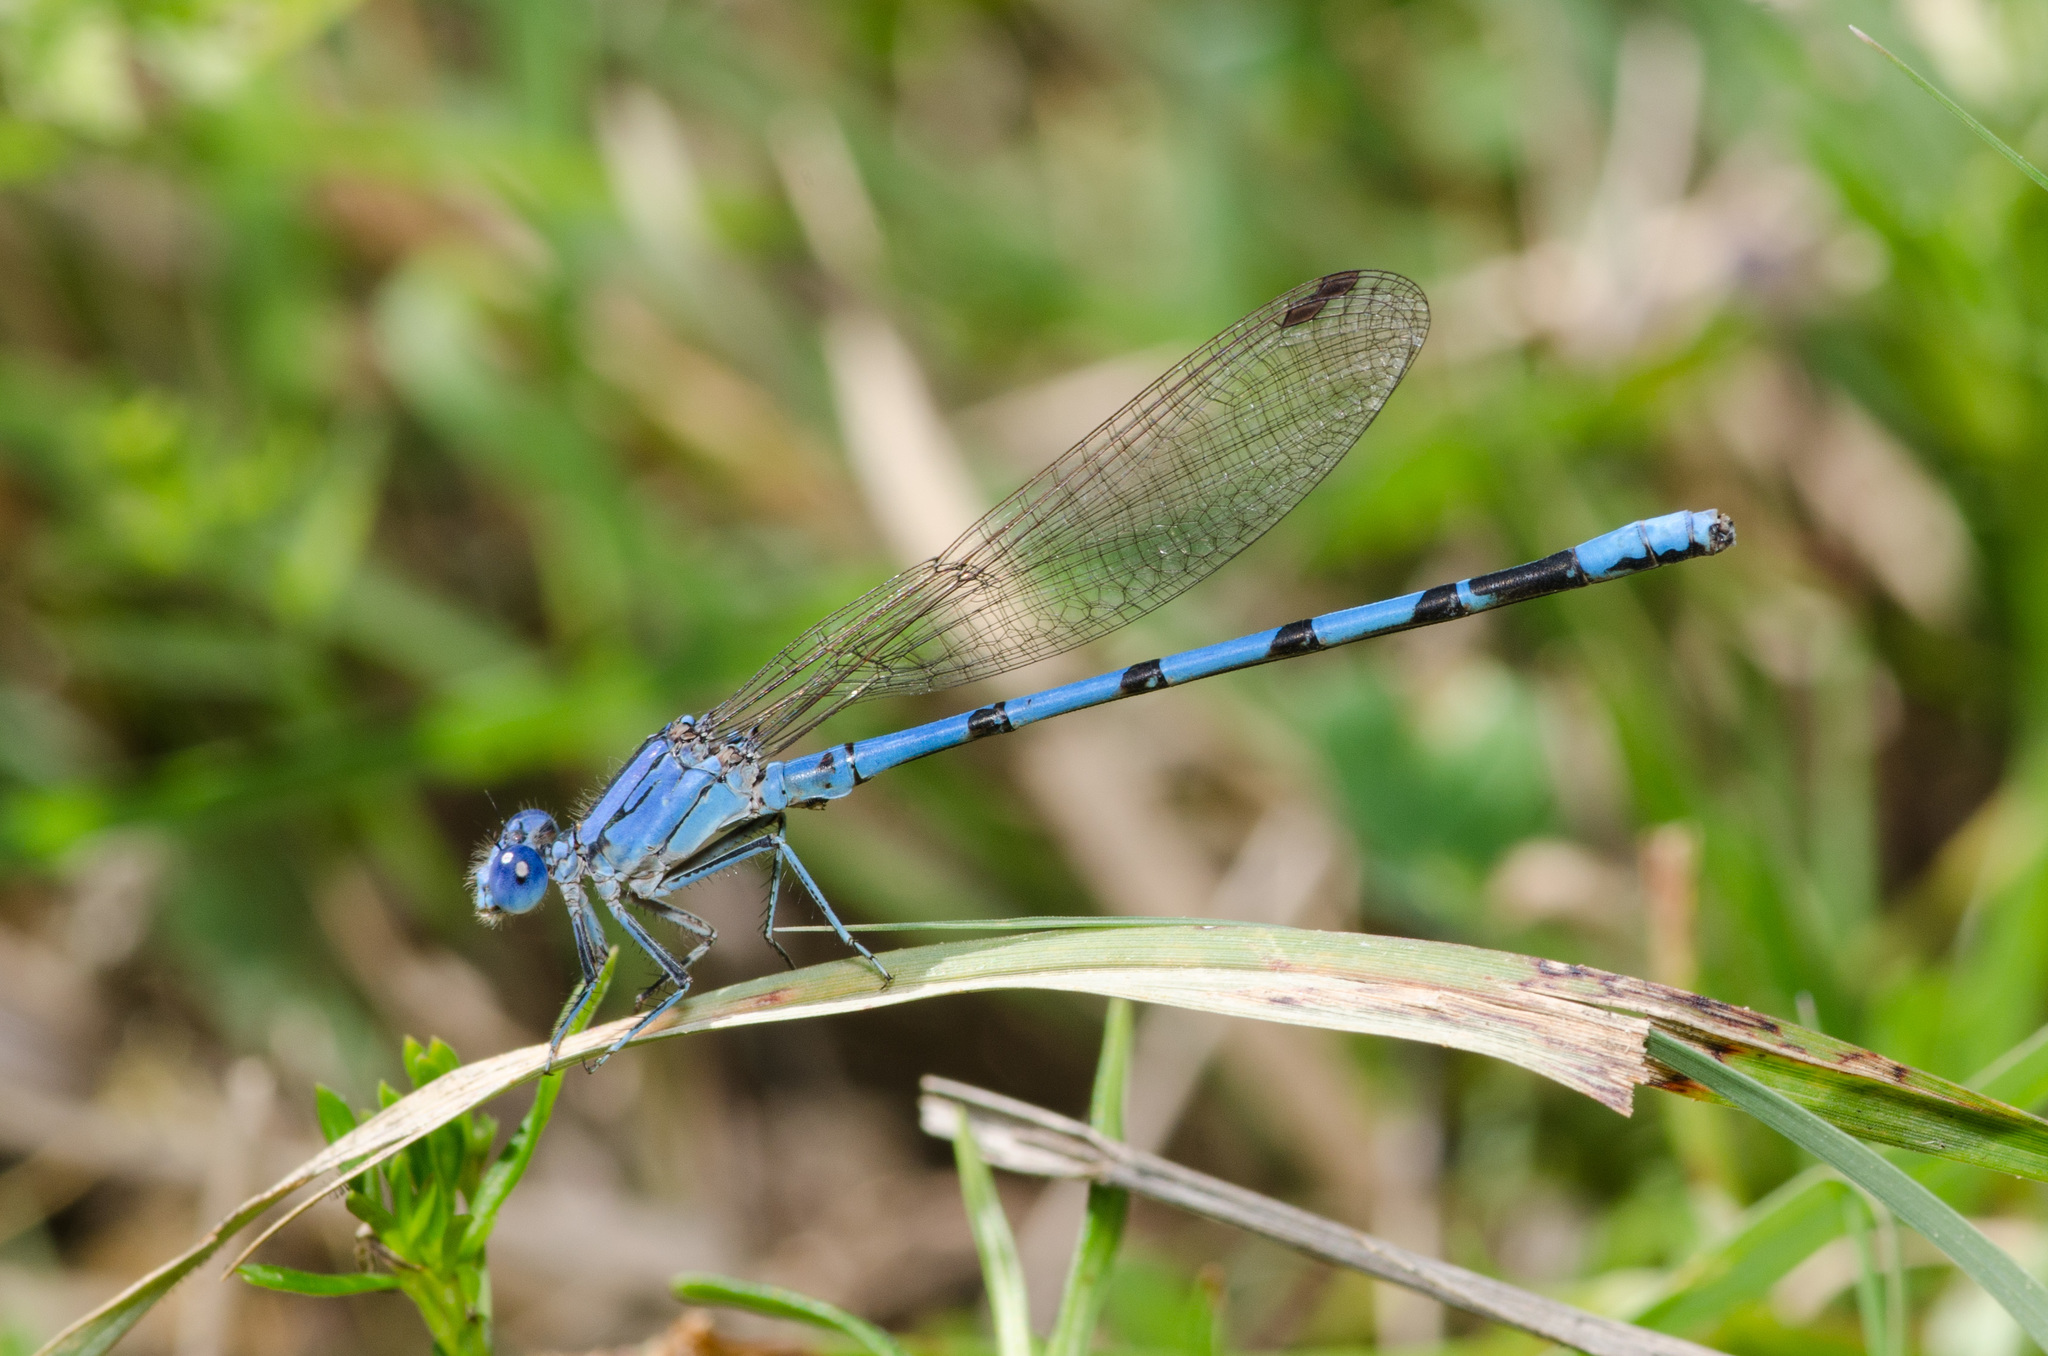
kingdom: Animalia
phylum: Arthropoda
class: Insecta
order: Odonata
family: Coenagrionidae
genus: Argia
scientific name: Argia nahuana
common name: Aztec dancer
